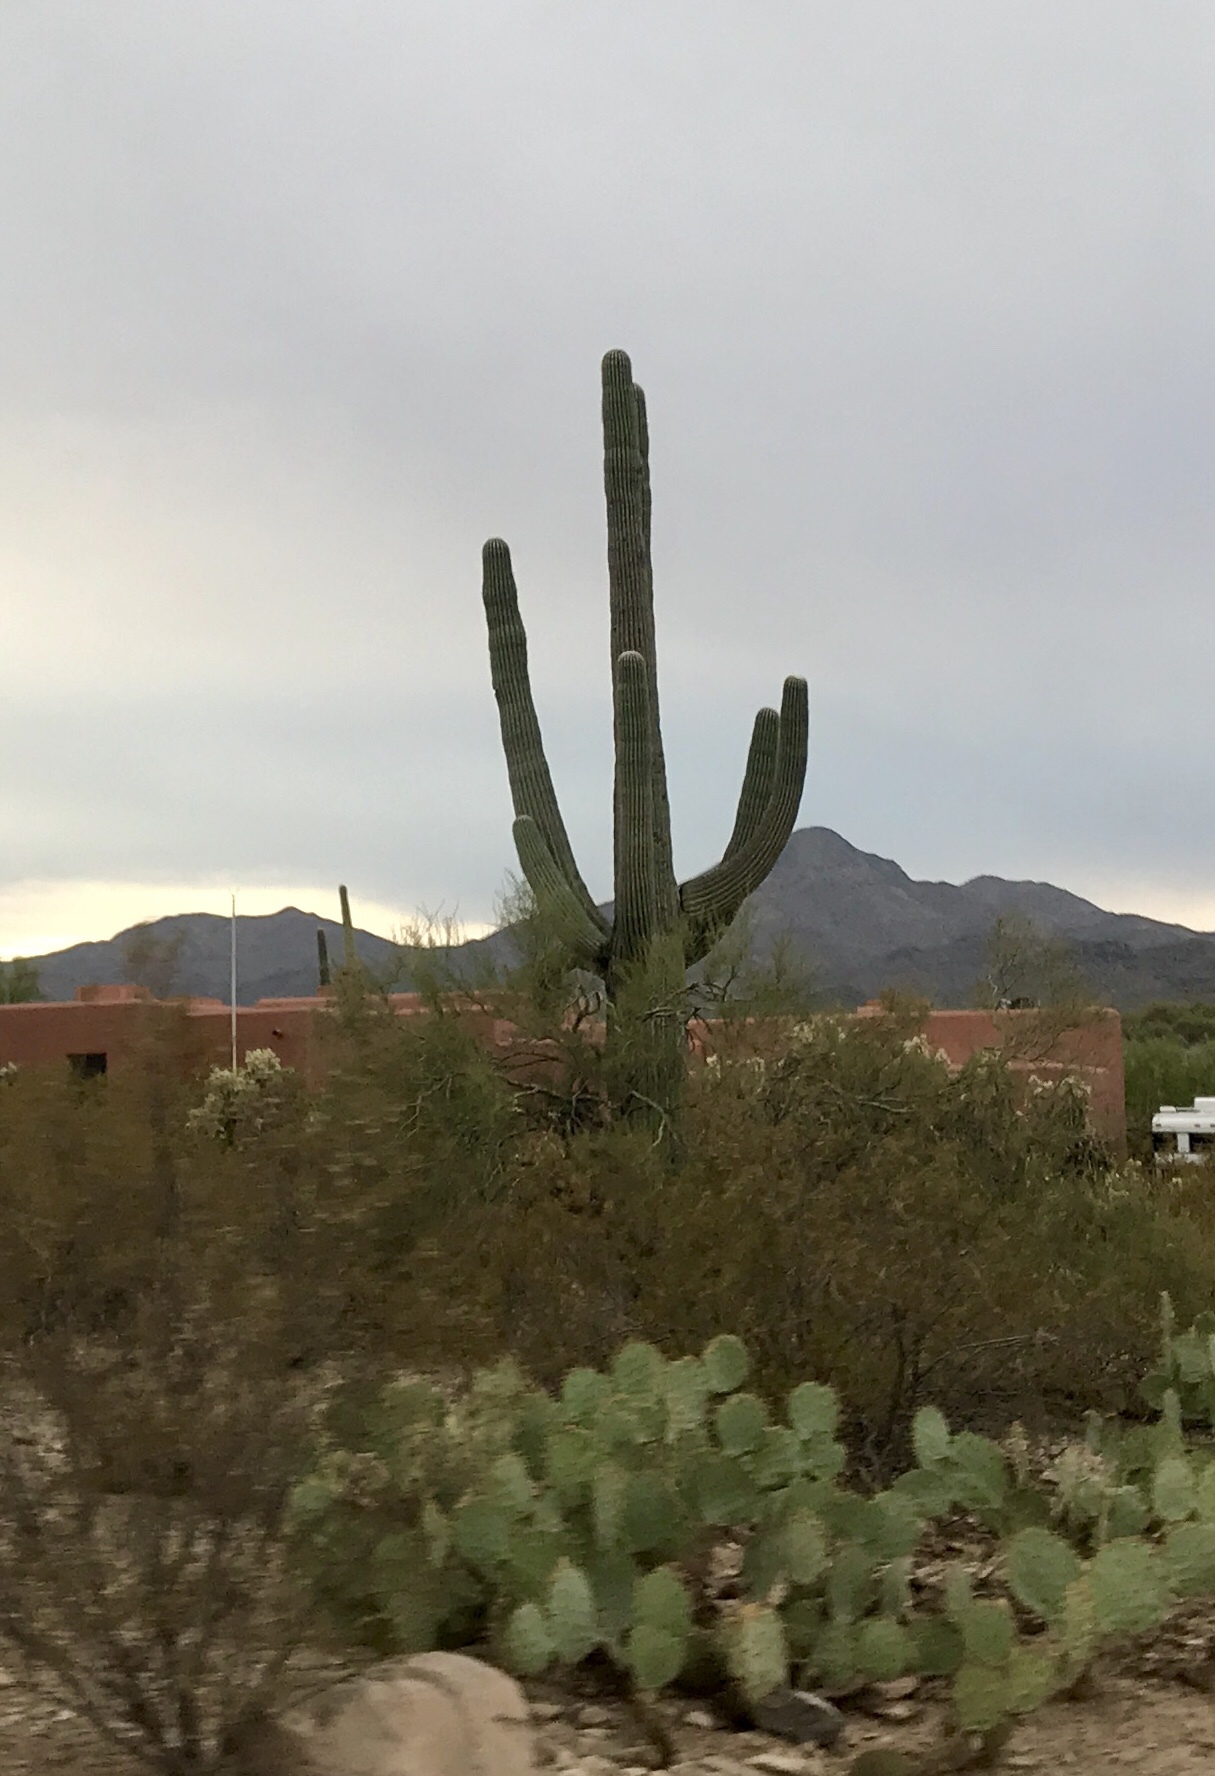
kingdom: Plantae
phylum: Tracheophyta
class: Magnoliopsida
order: Caryophyllales
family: Cactaceae
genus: Carnegiea
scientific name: Carnegiea gigantea
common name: Saguaro
